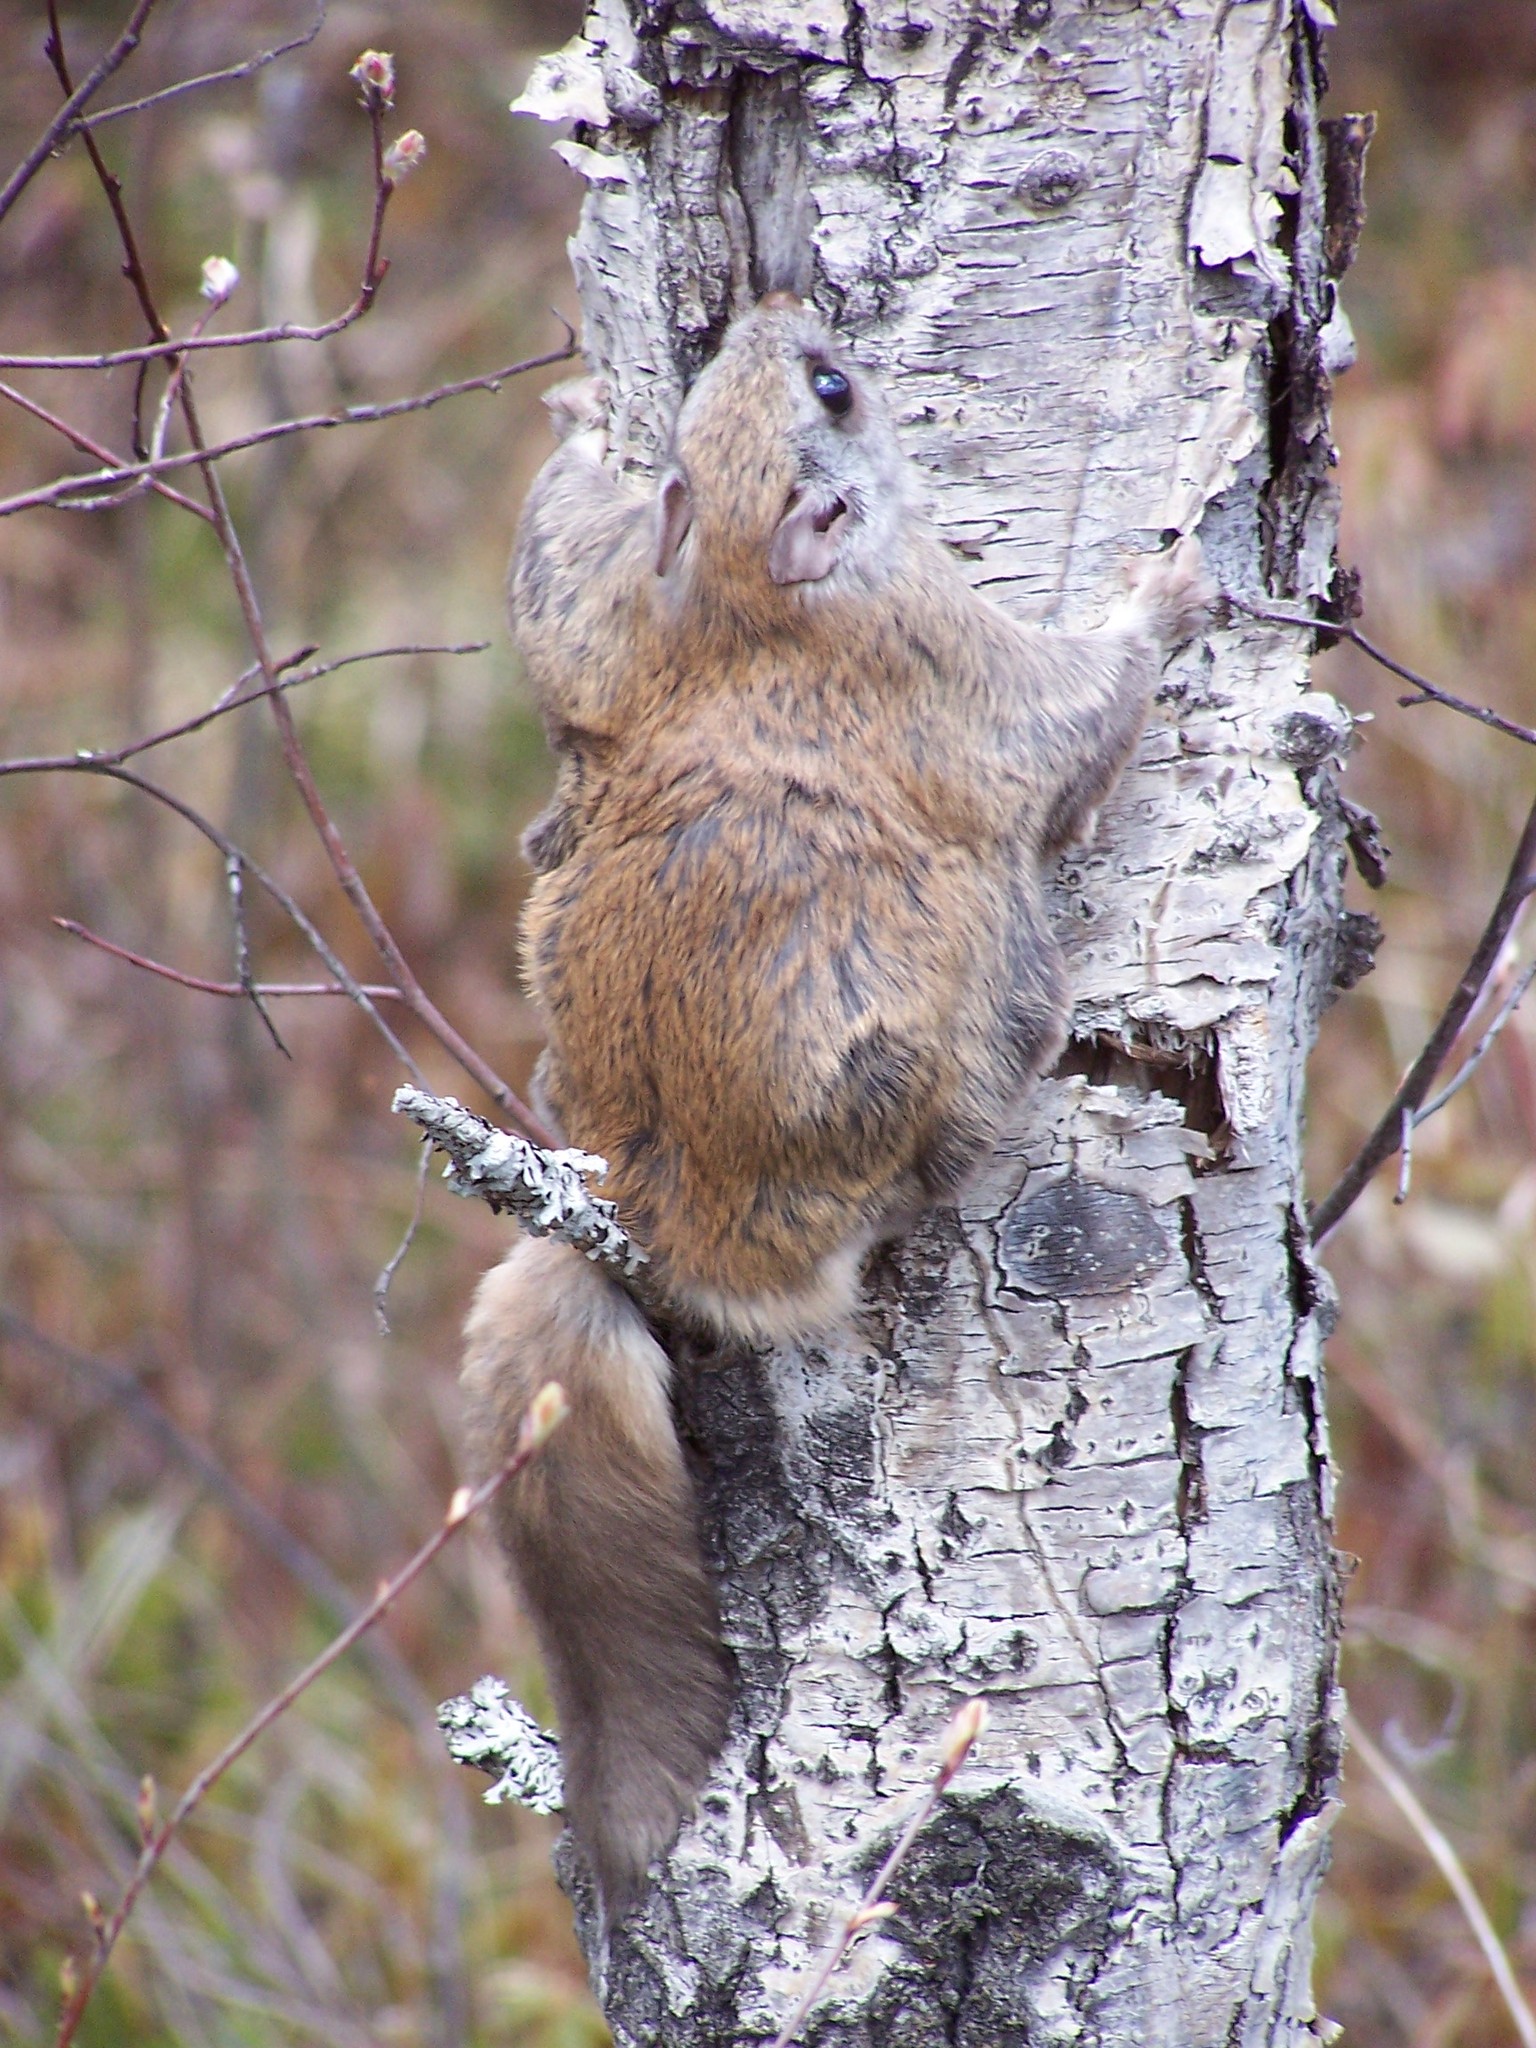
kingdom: Animalia
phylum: Chordata
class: Mammalia
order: Rodentia
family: Sciuridae
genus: Glaucomys
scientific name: Glaucomys sabrinus
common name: Northern flying squirrel
